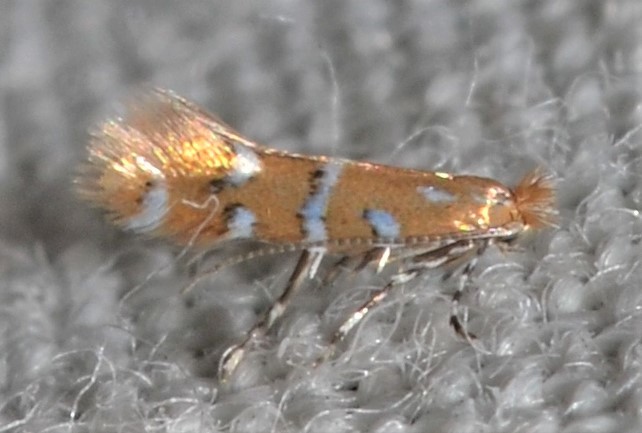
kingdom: Animalia
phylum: Arthropoda
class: Insecta
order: Lepidoptera
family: Gracillariidae
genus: Cremastobombycia
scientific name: Cremastobombycia ignota
